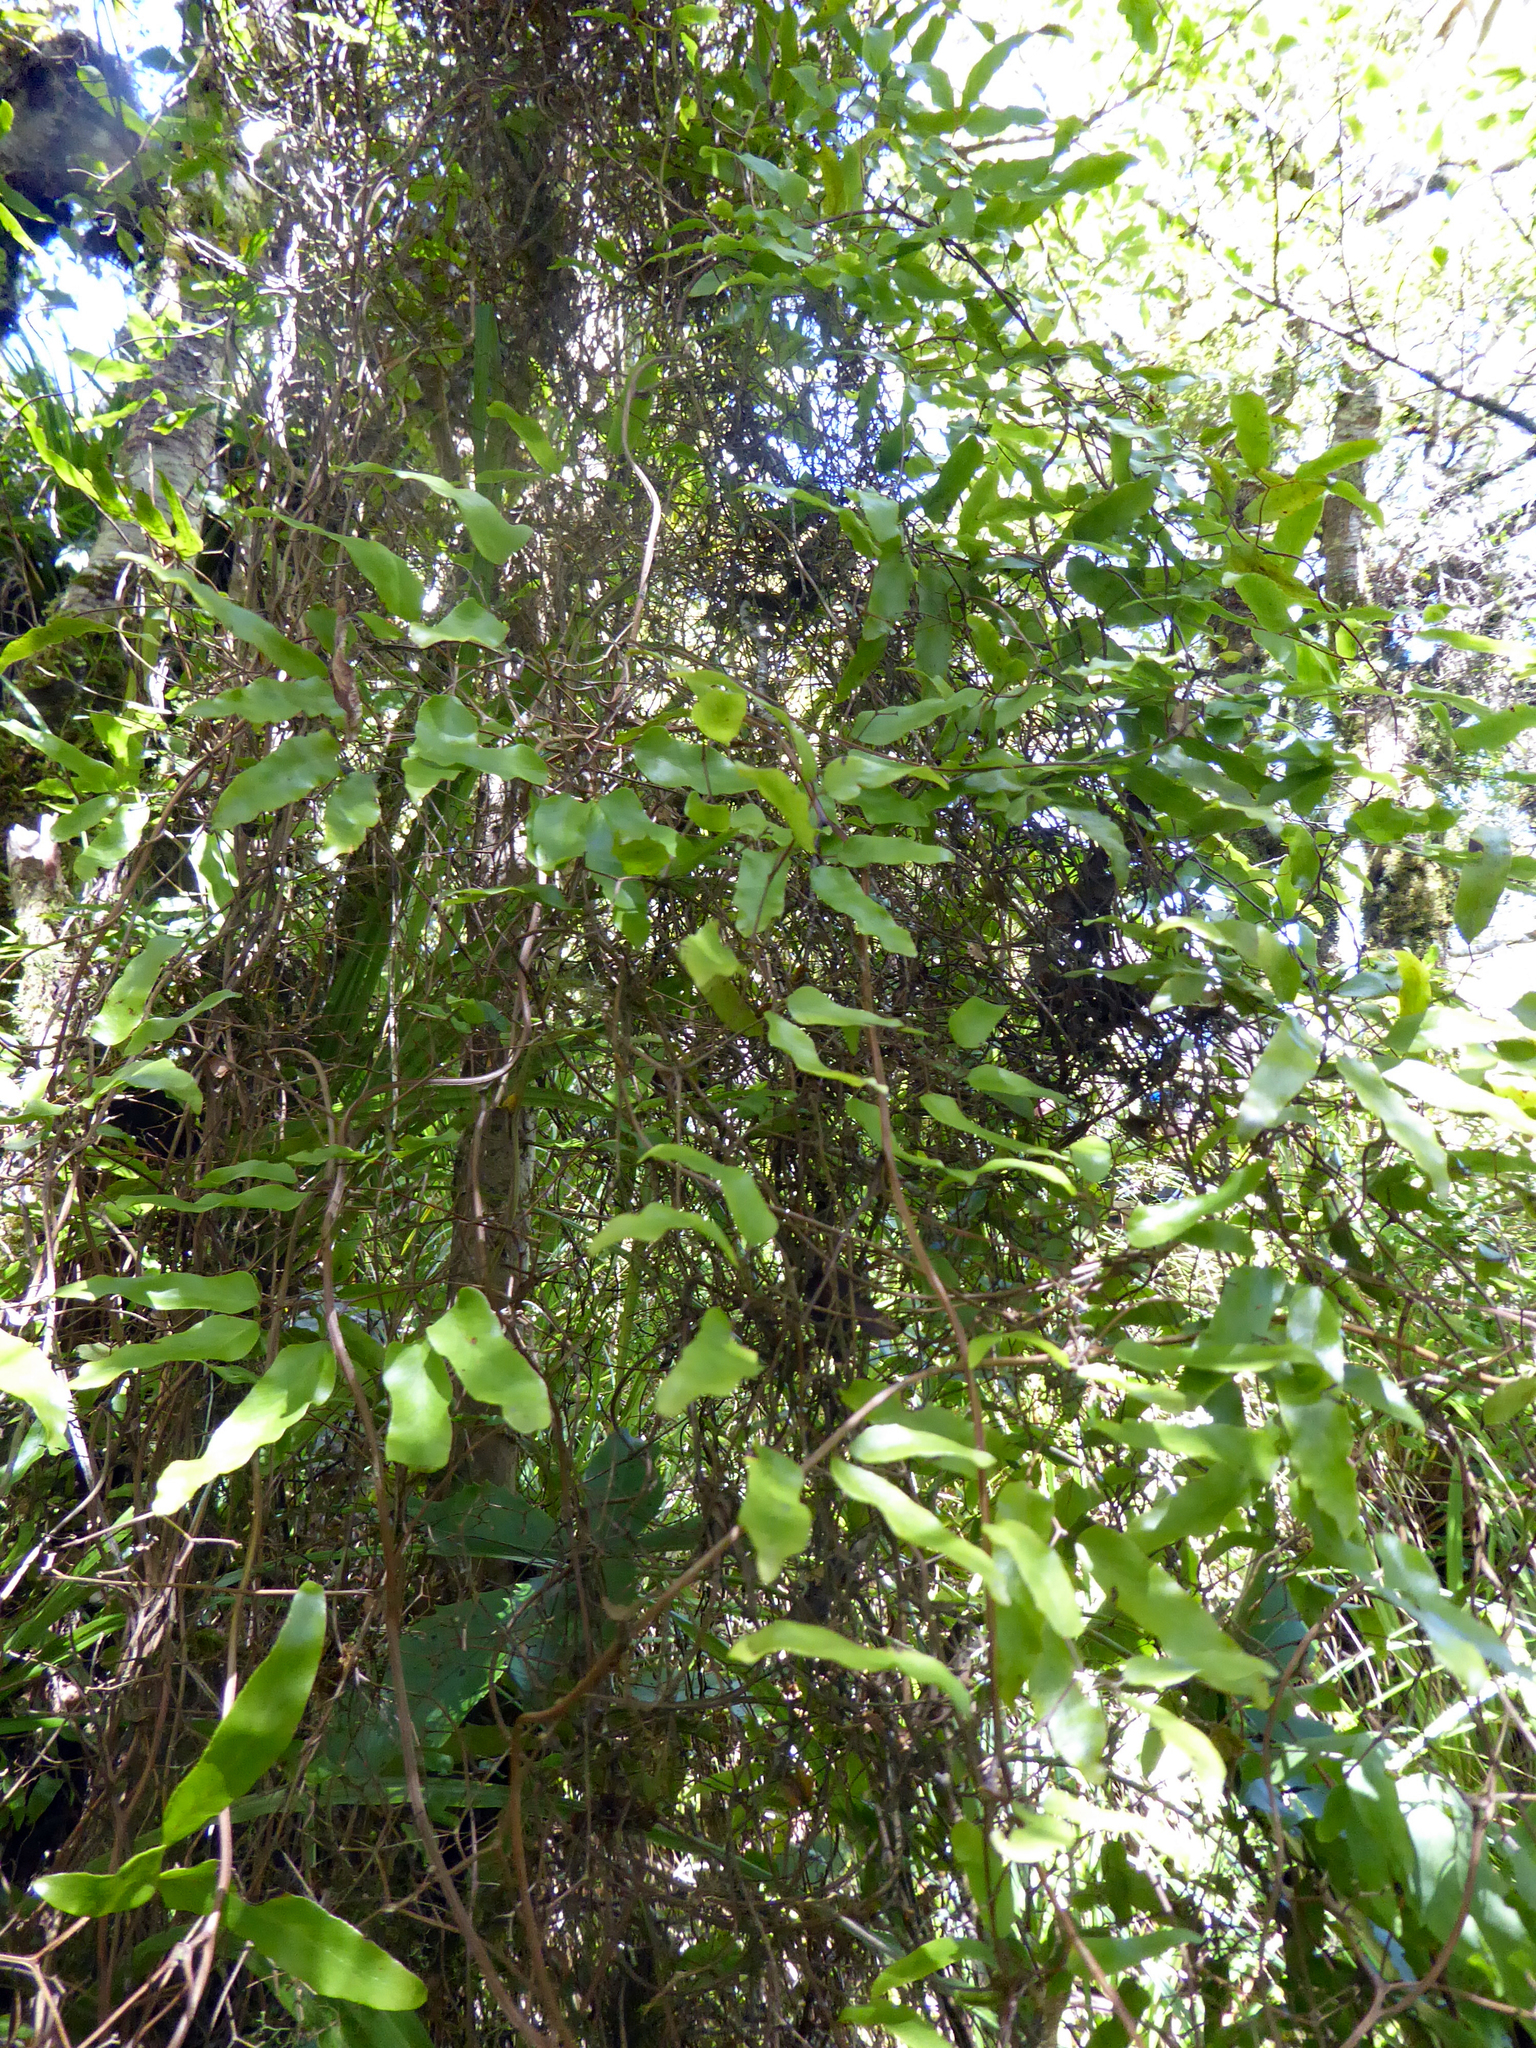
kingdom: Plantae
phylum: Tracheophyta
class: Polypodiopsida
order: Schizaeales
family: Lygodiaceae
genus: Lygodium
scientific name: Lygodium articulatum
